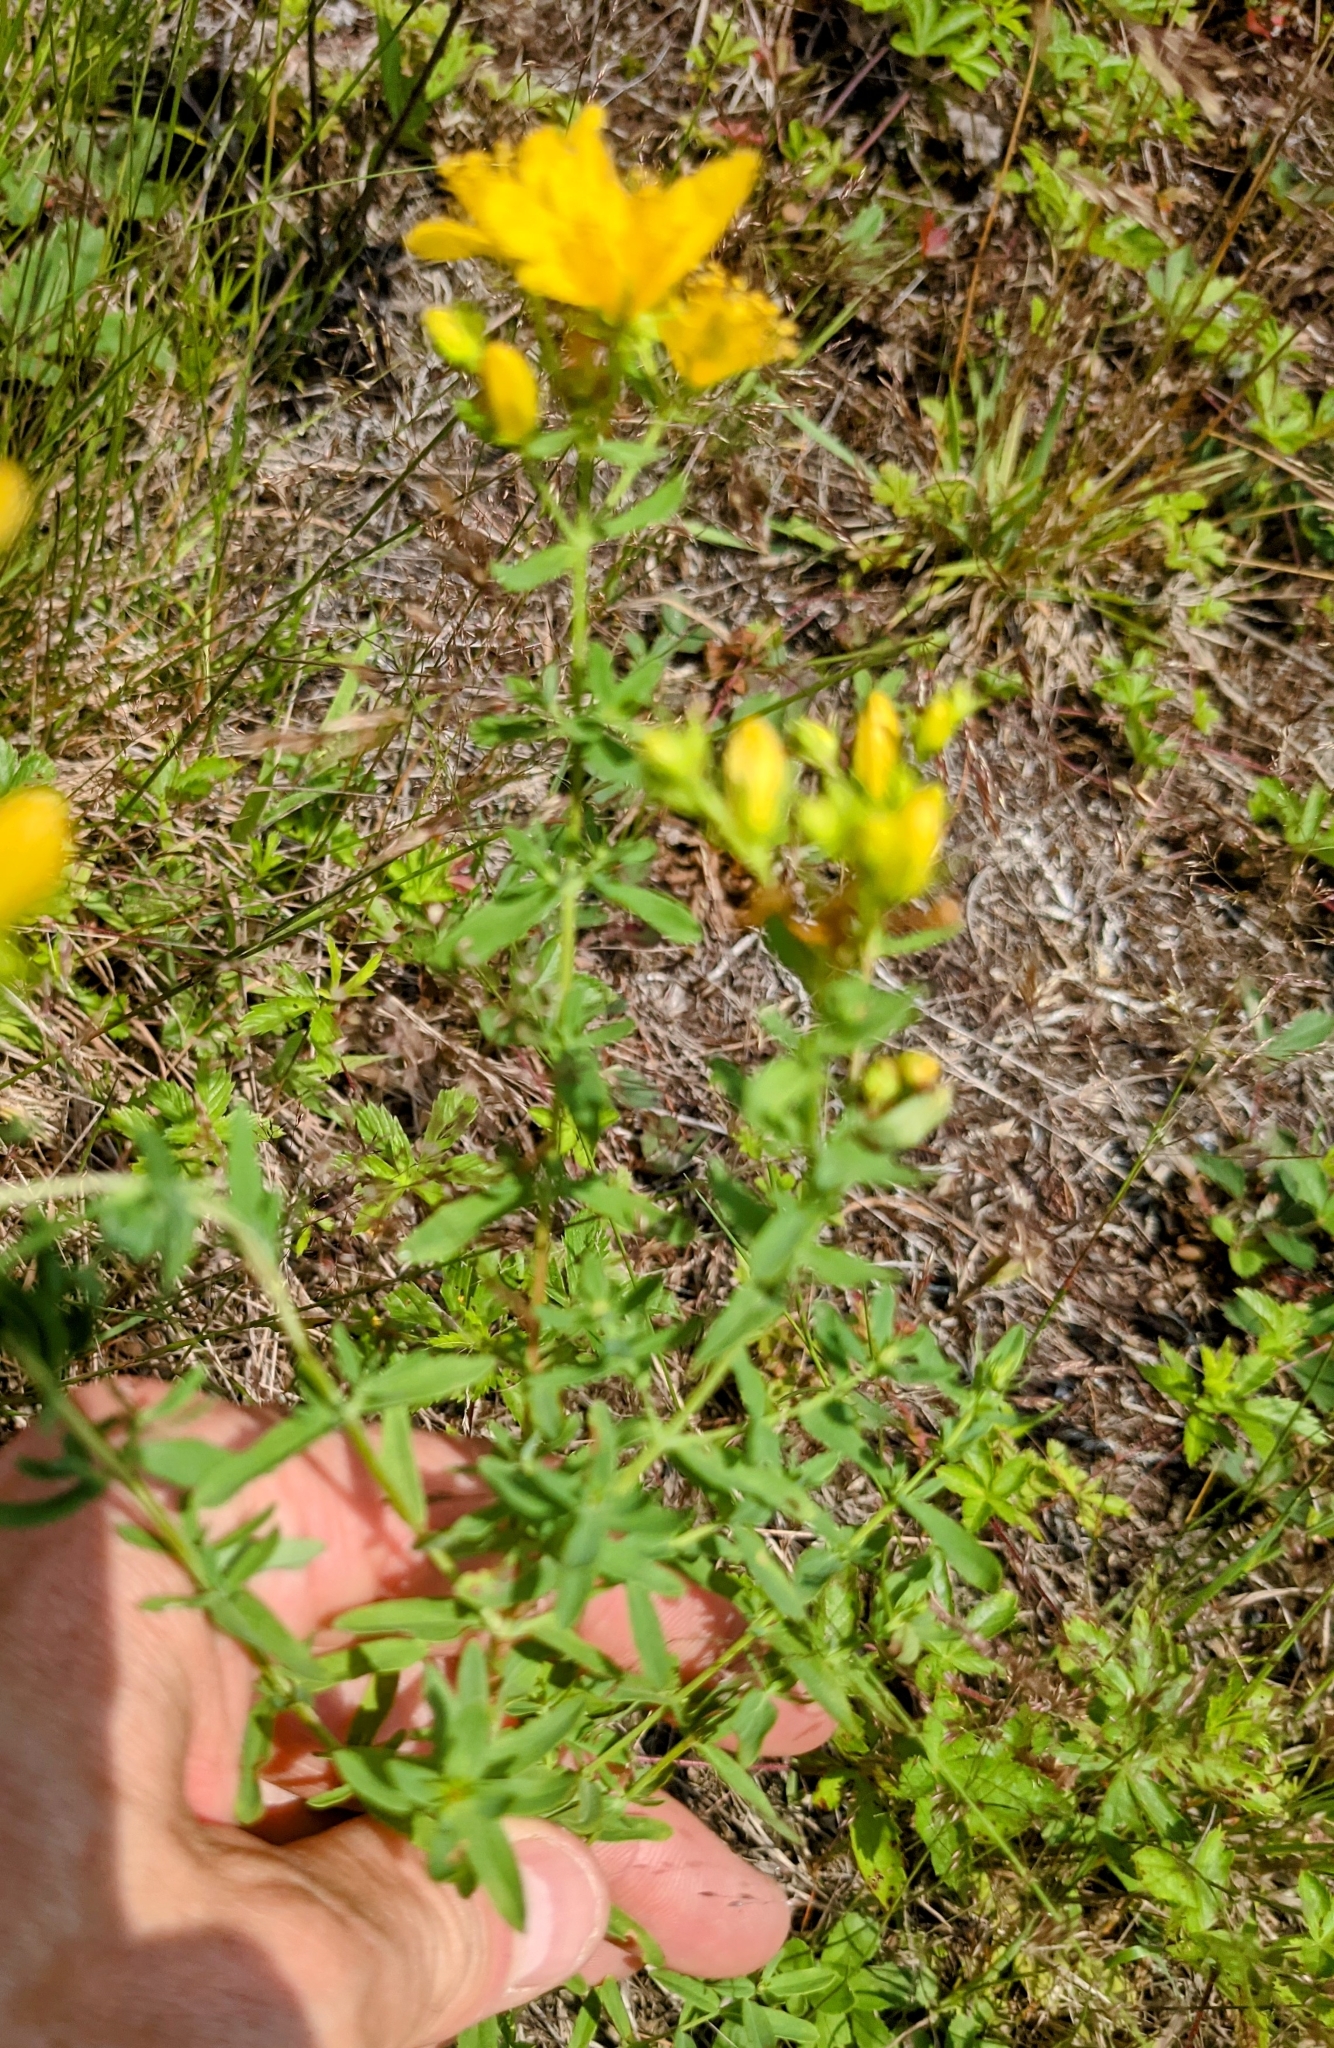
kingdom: Plantae
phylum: Tracheophyta
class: Magnoliopsida
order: Malpighiales
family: Hypericaceae
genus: Hypericum
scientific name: Hypericum perforatum
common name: Common st. johnswort
